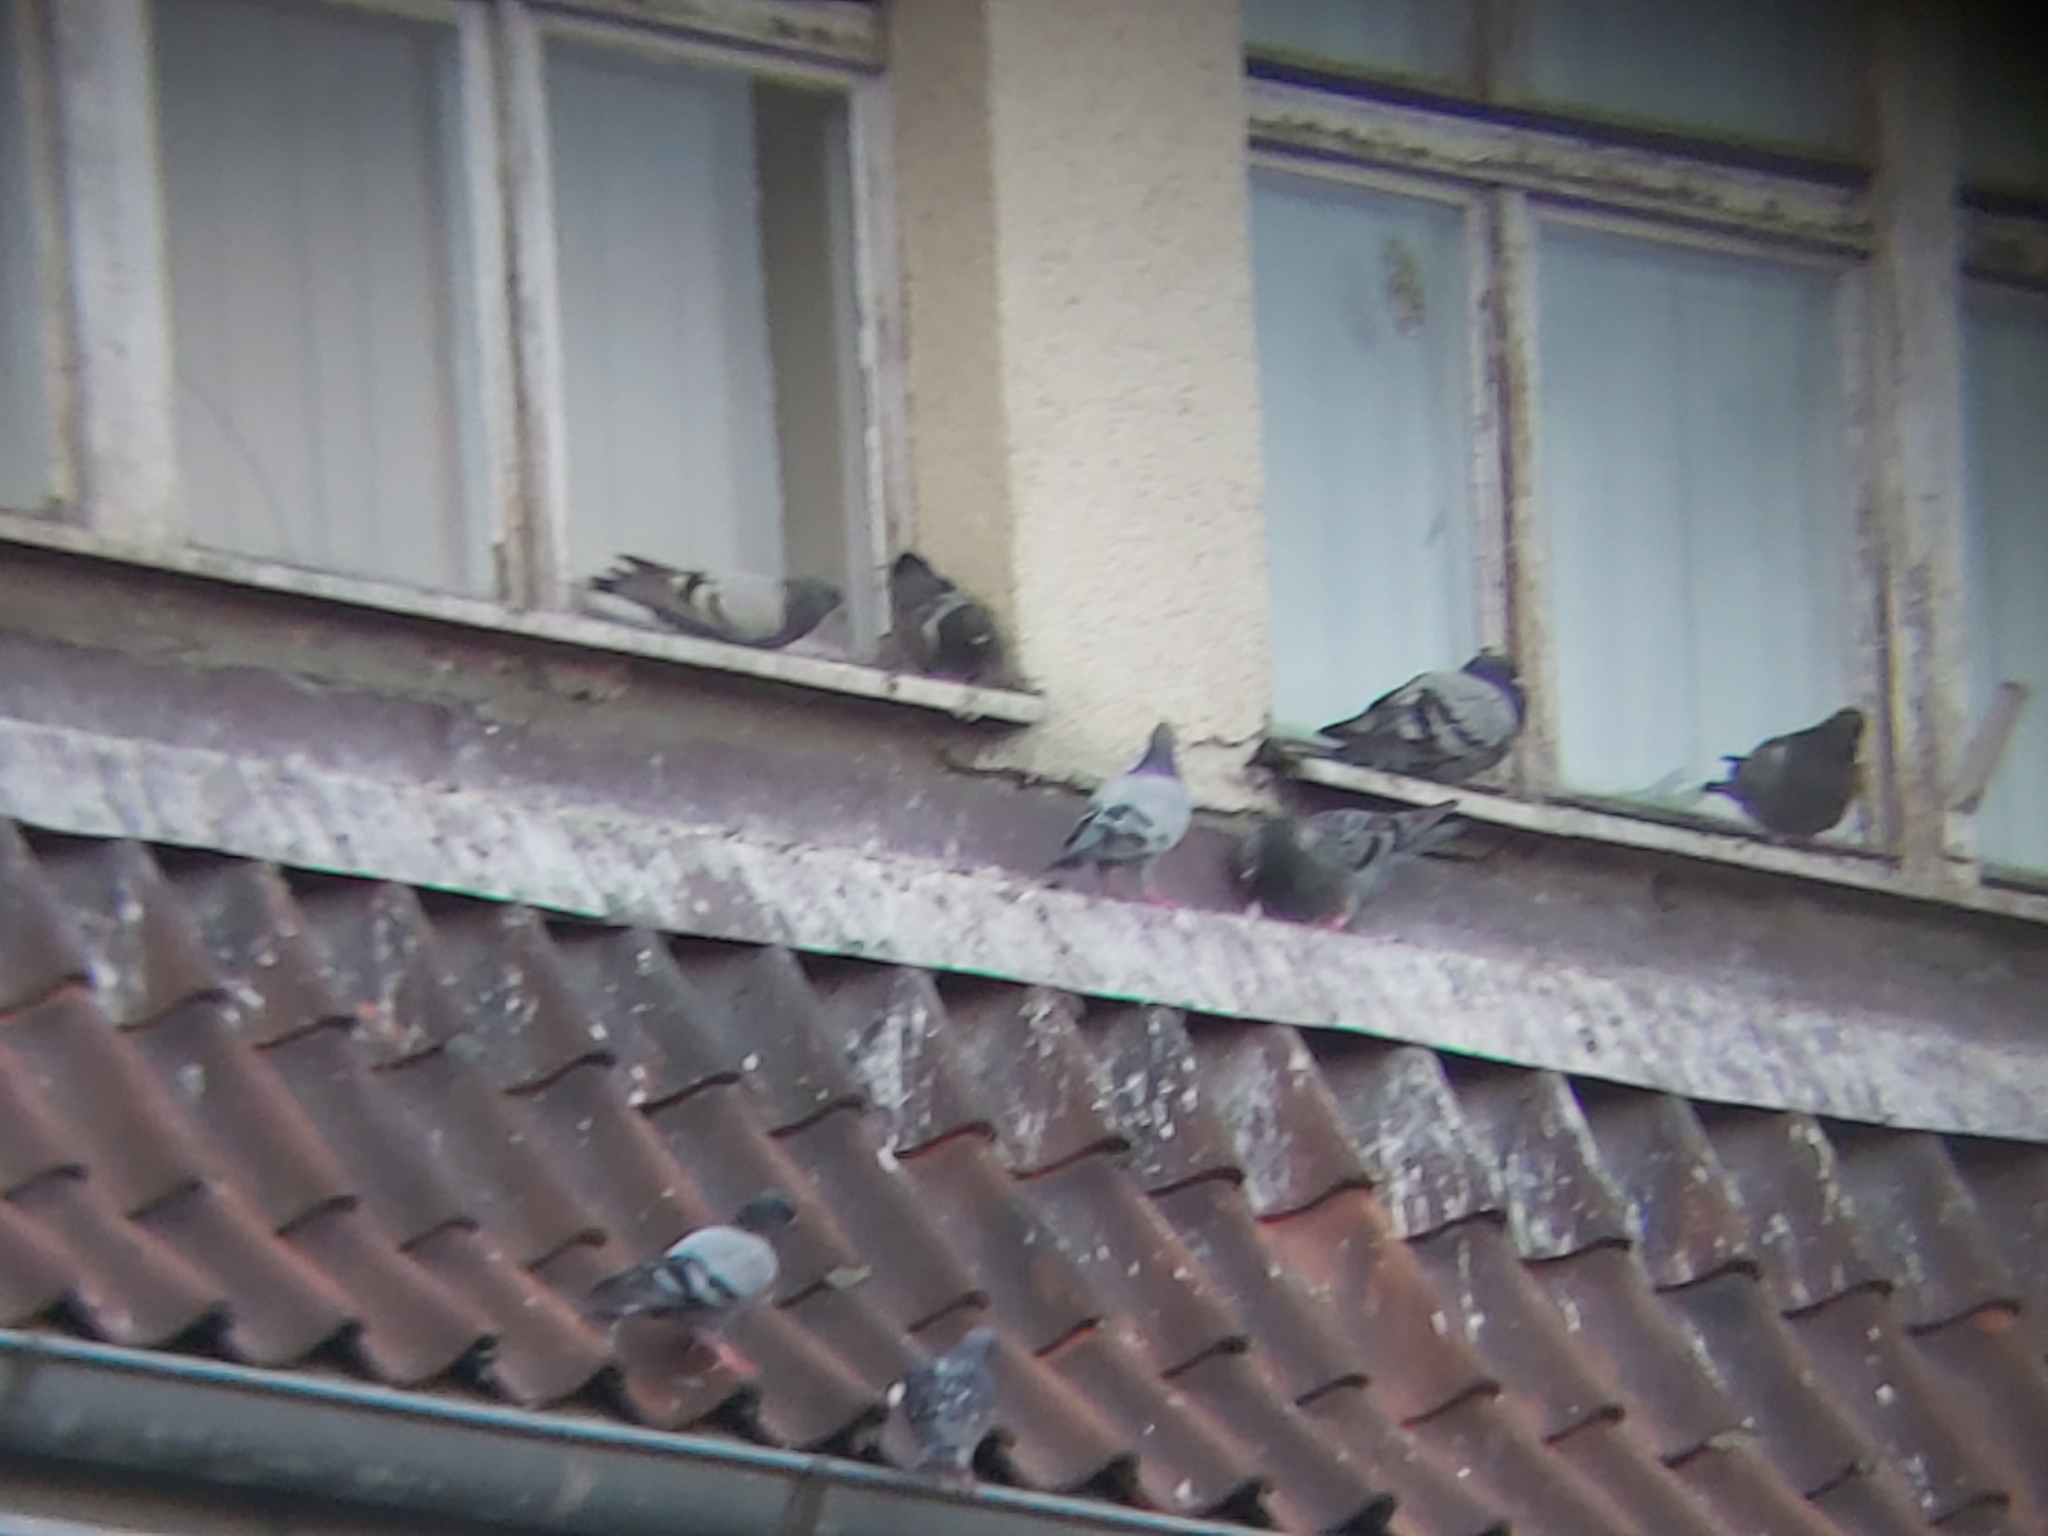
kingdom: Animalia
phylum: Chordata
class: Aves
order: Columbiformes
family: Columbidae
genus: Columba
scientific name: Columba livia
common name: Rock pigeon
